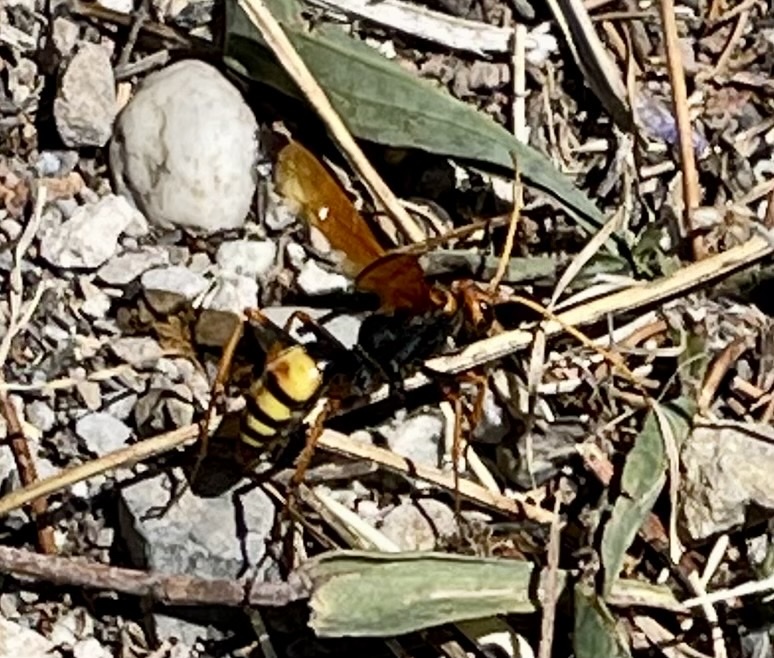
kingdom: Animalia
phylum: Arthropoda
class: Insecta
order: Hymenoptera
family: Pompilidae
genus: Cryptocheilus
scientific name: Cryptocheilus alternatus
